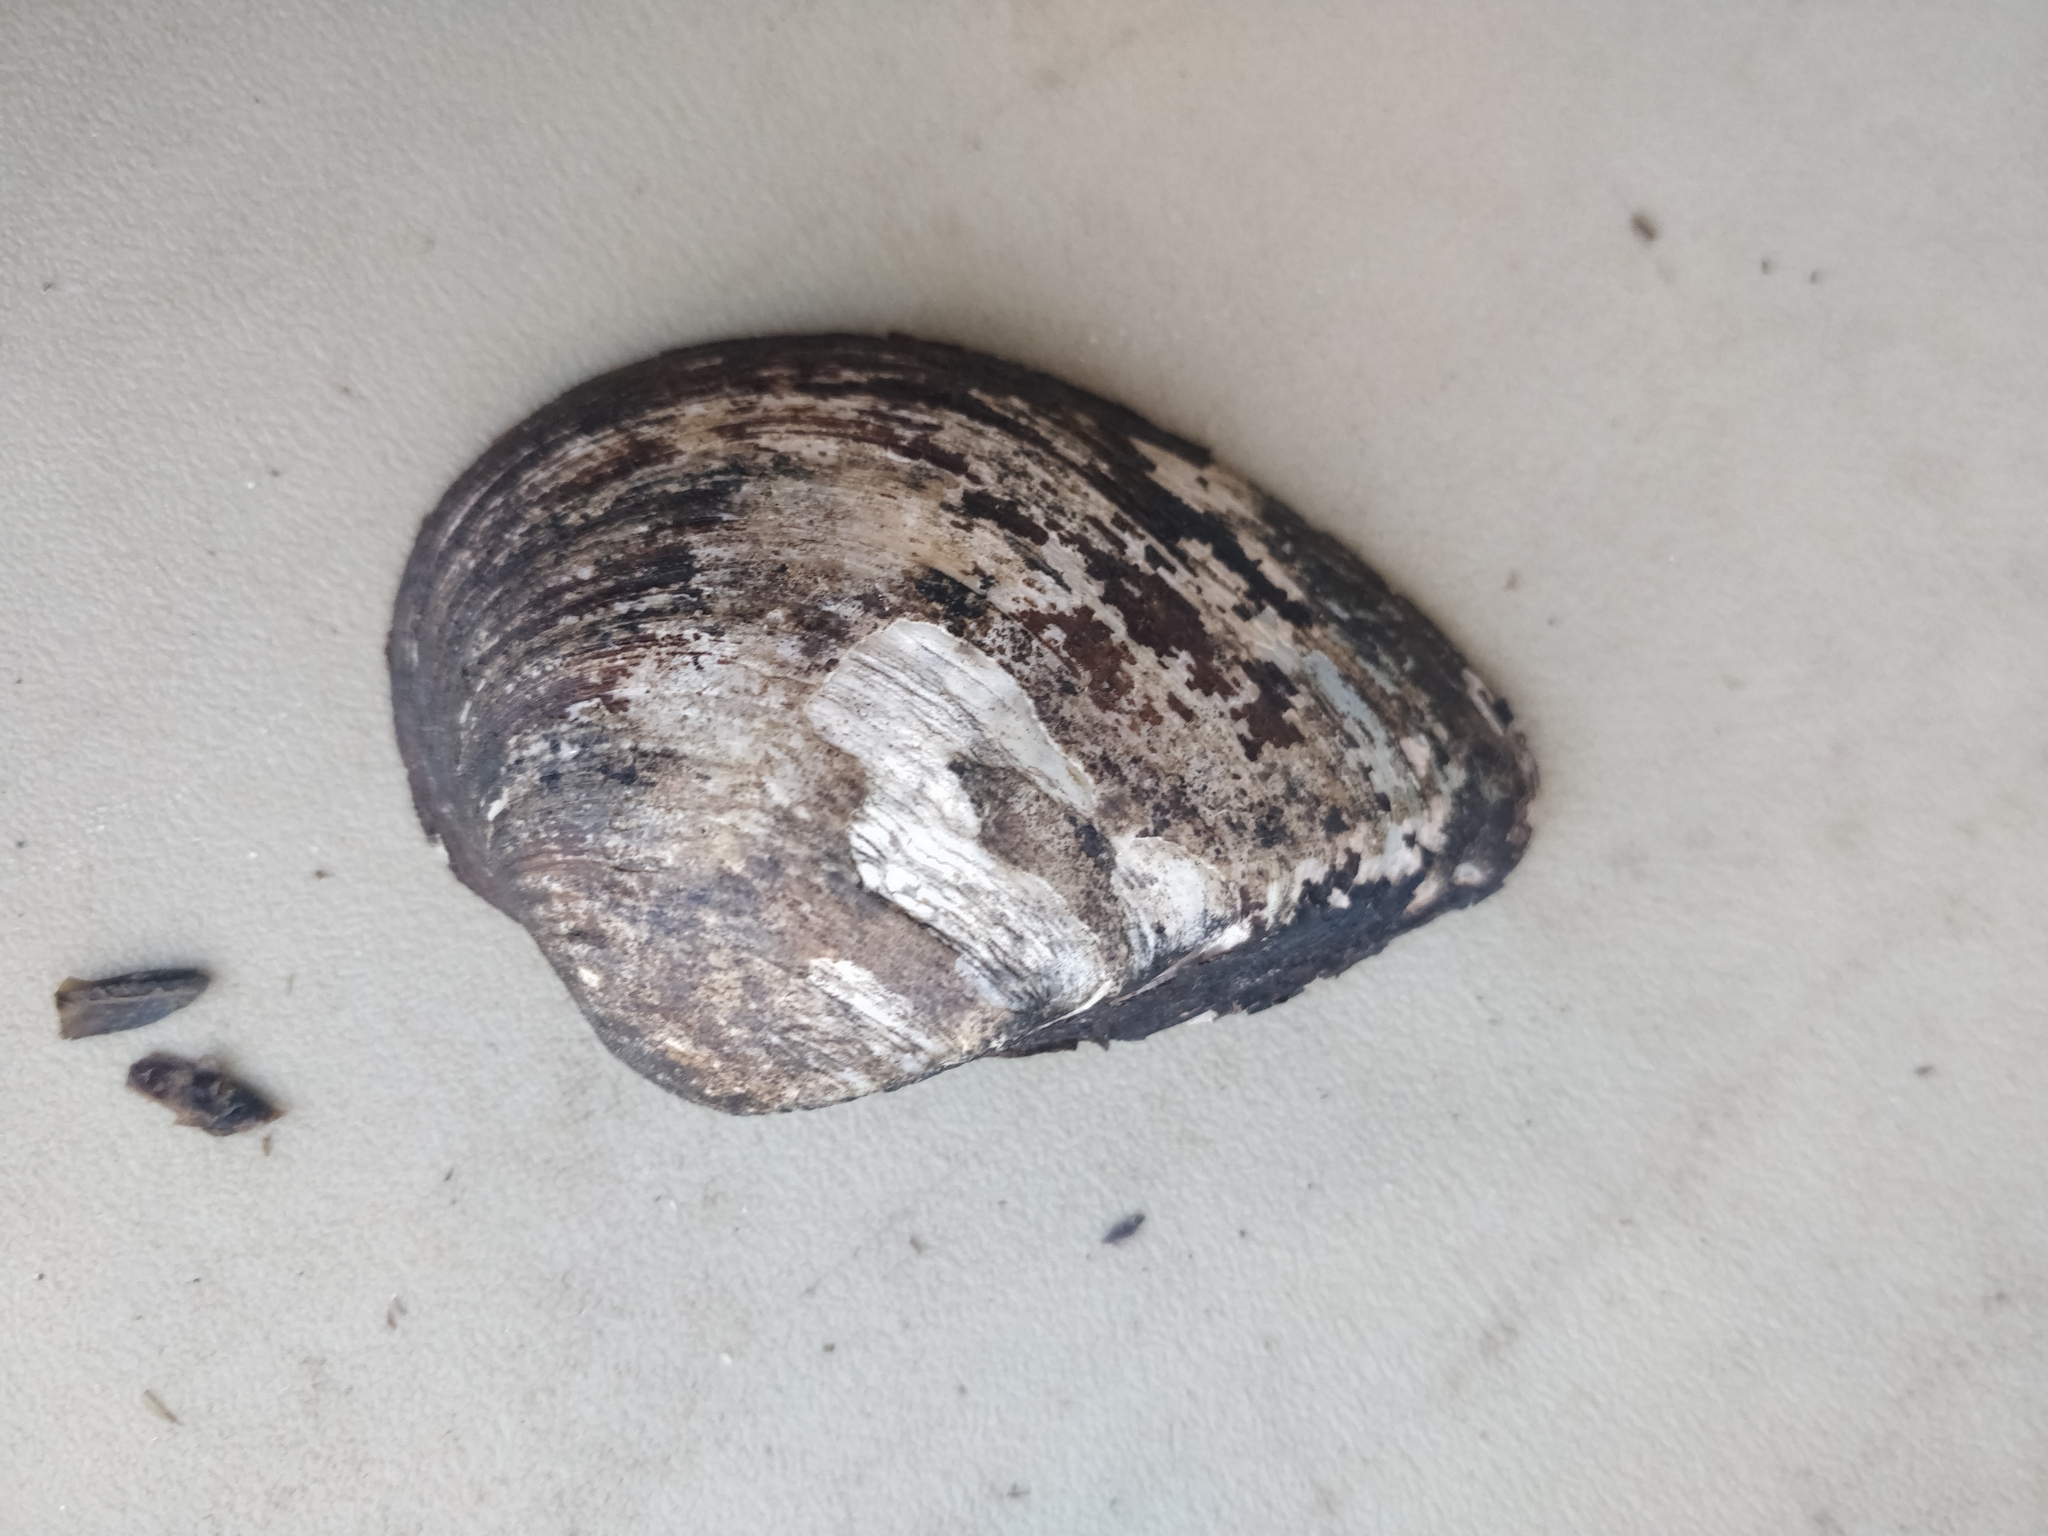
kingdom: Animalia
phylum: Mollusca
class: Bivalvia
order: Unionida
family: Unionidae
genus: Truncilla
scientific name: Truncilla truncata
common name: Deertoe
